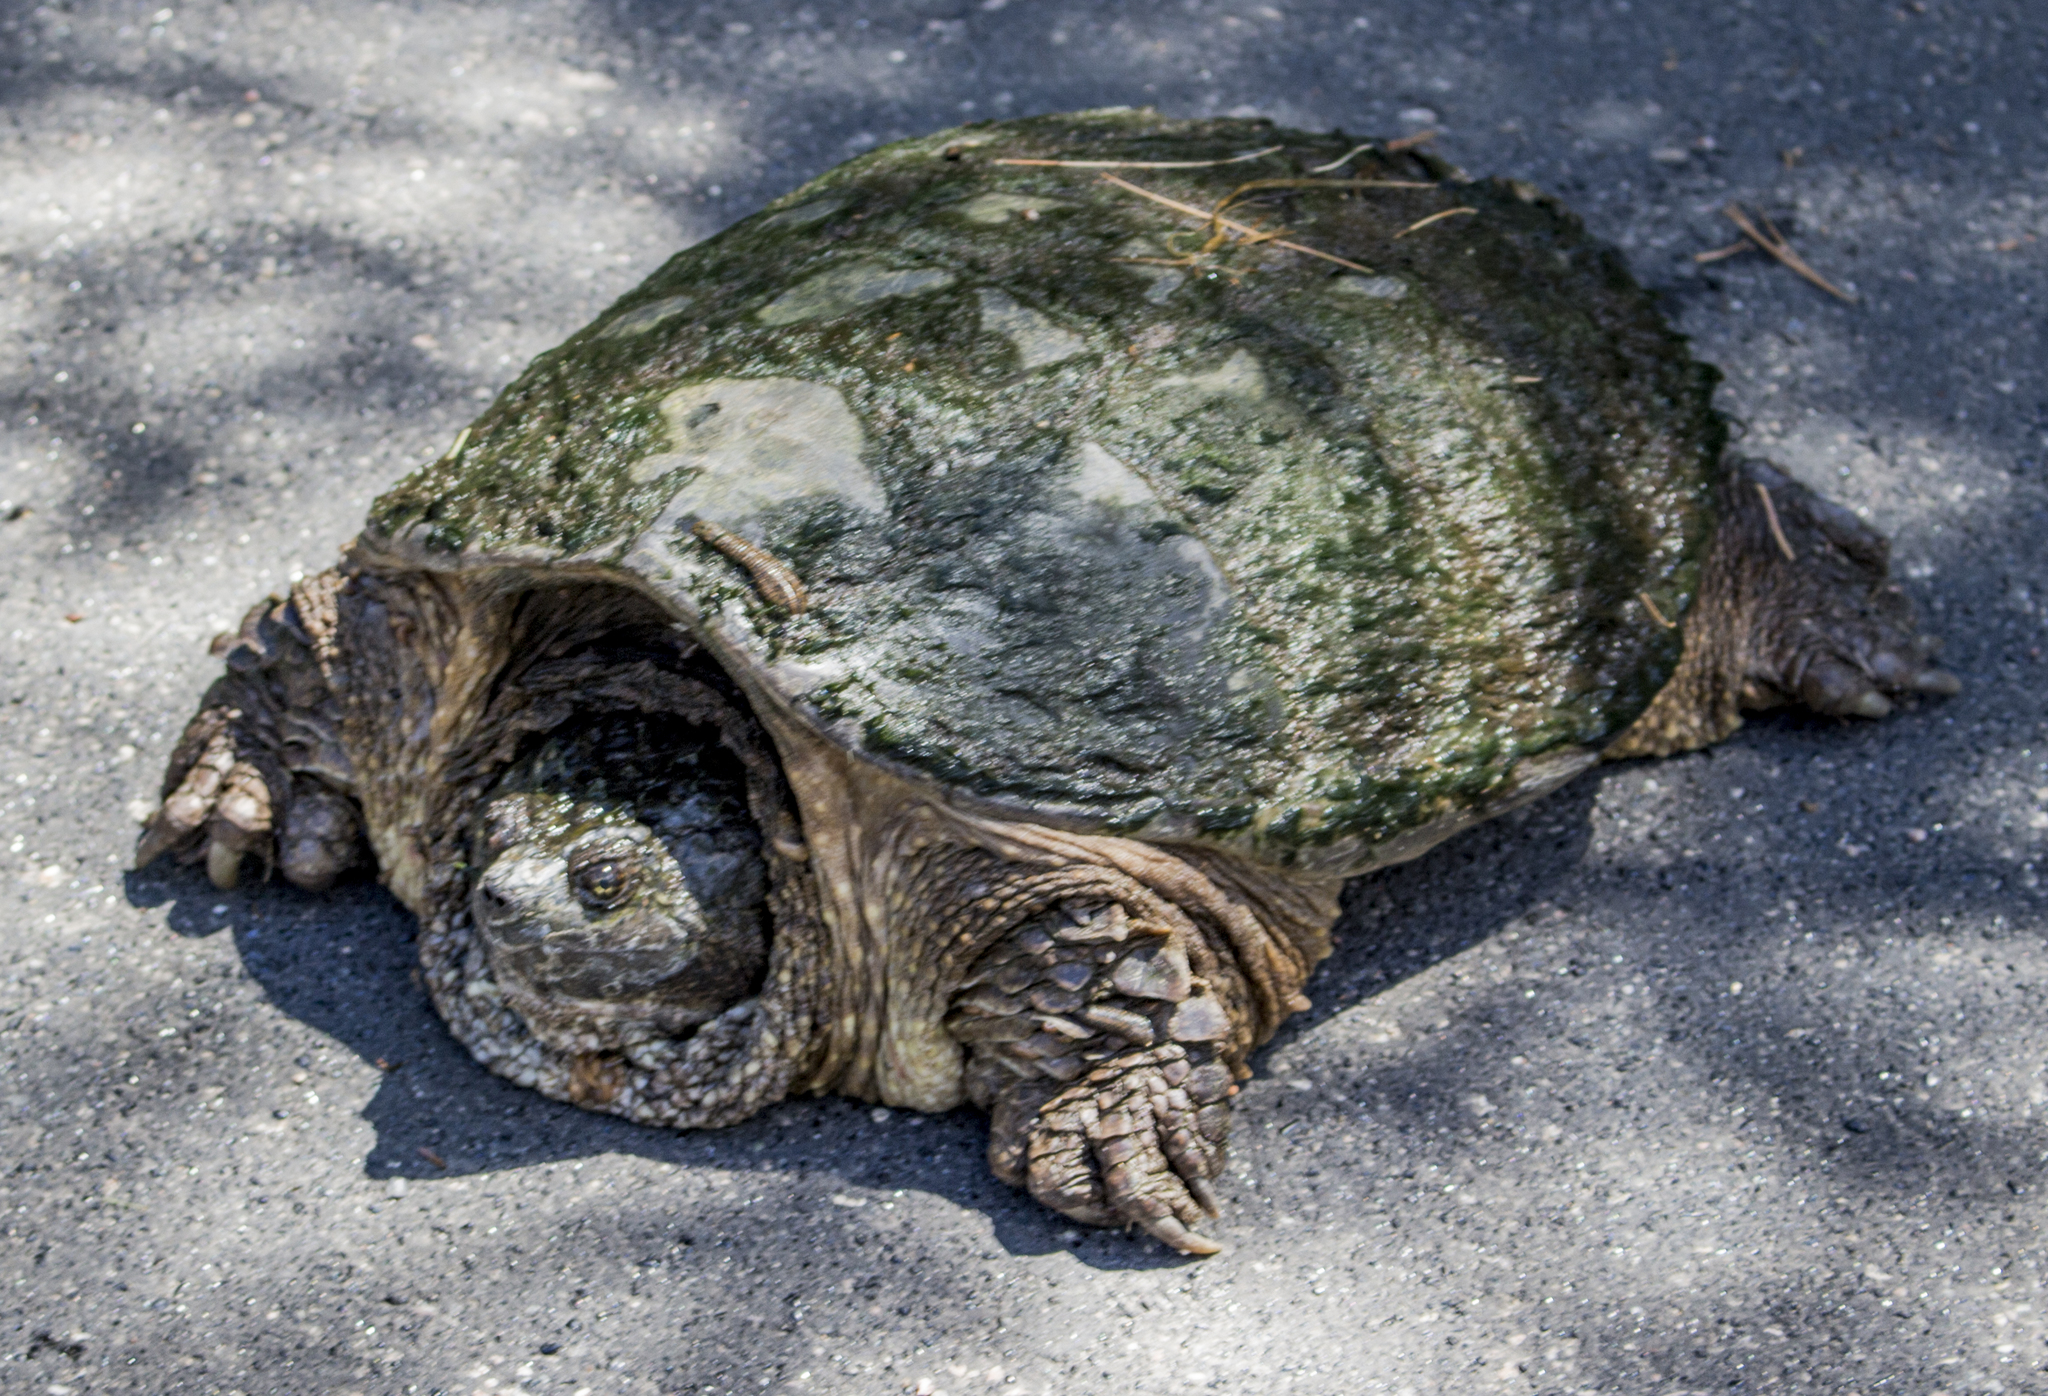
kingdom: Animalia
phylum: Chordata
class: Testudines
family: Chelydridae
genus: Chelydra
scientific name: Chelydra serpentina
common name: Common snapping turtle
